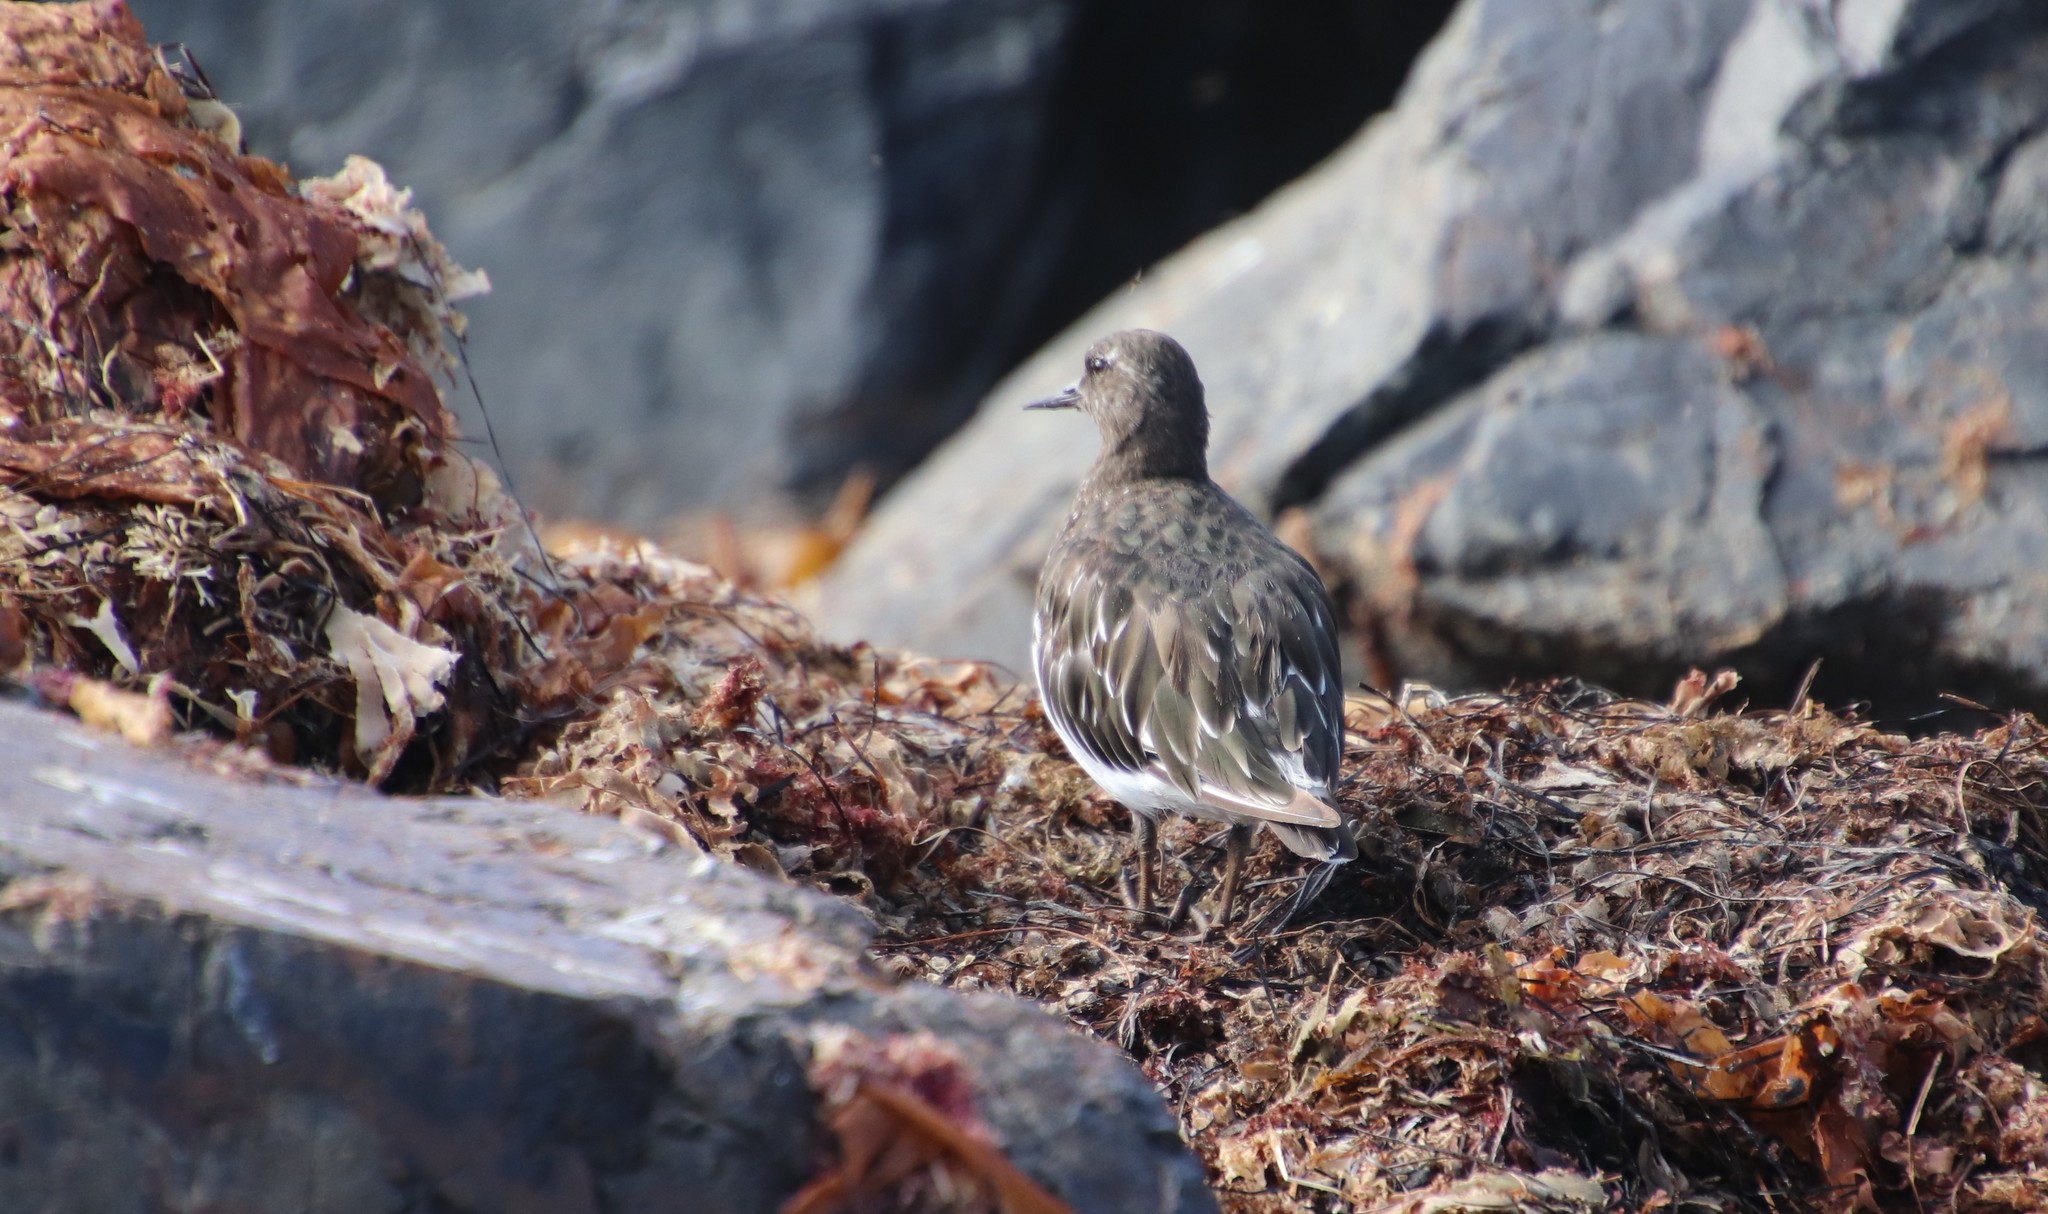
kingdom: Animalia
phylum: Chordata
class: Aves
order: Charadriiformes
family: Scolopacidae
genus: Arenaria
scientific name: Arenaria melanocephala
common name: Black turnstone
